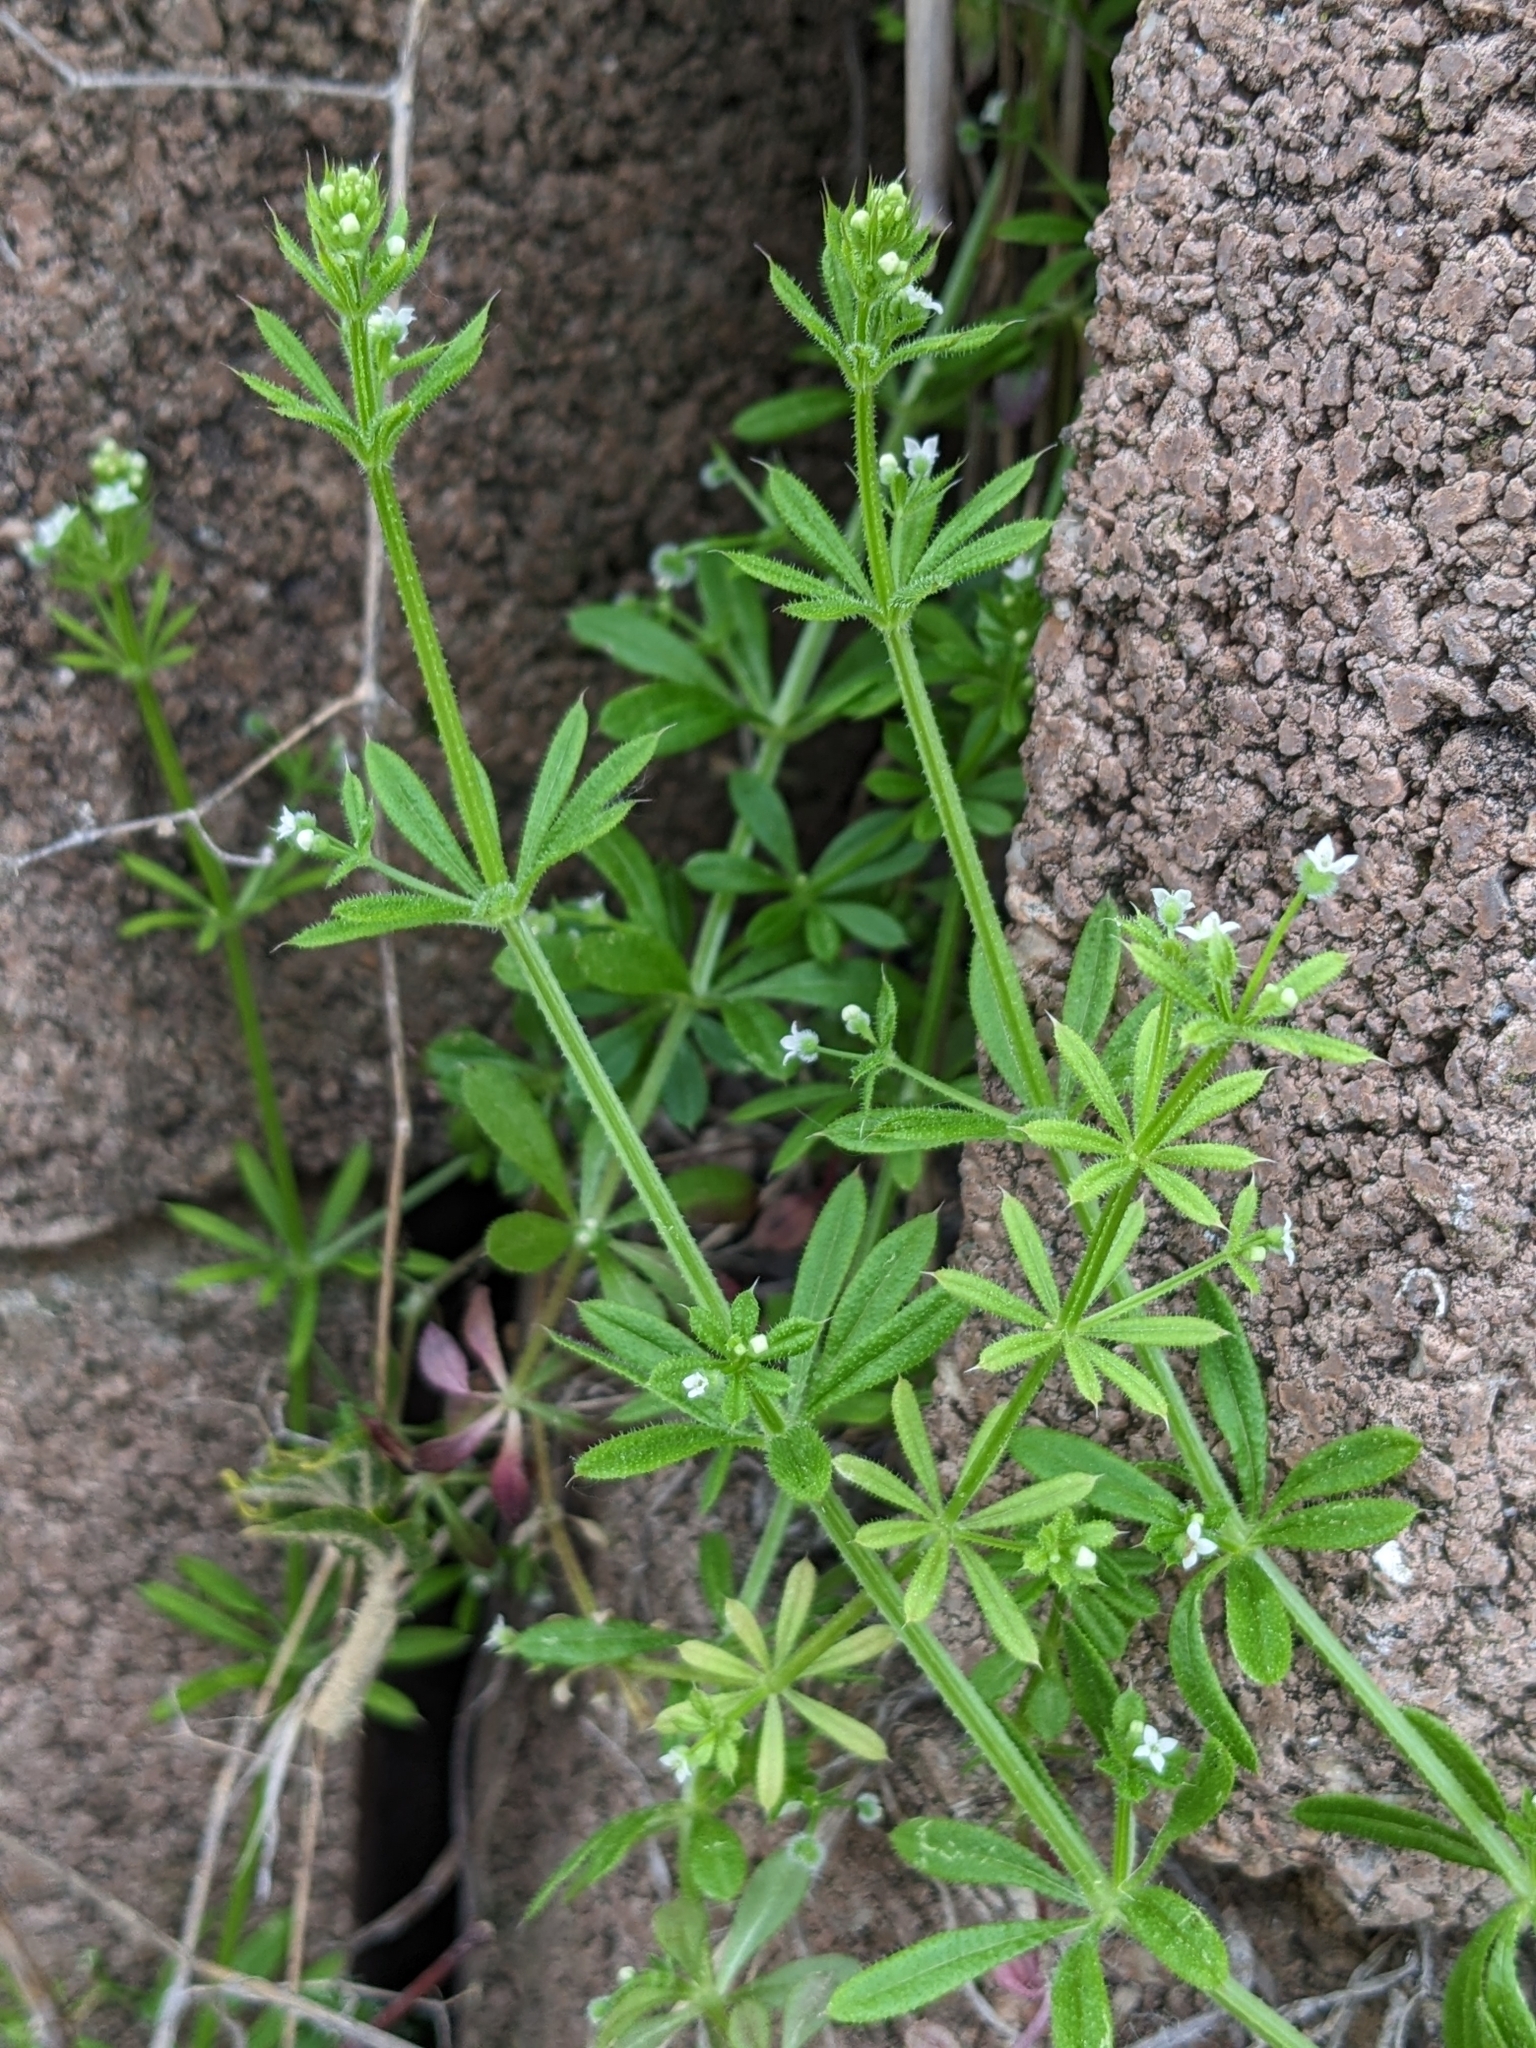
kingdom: Plantae
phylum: Tracheophyta
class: Magnoliopsida
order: Gentianales
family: Rubiaceae
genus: Galium
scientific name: Galium aparine
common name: Cleavers
